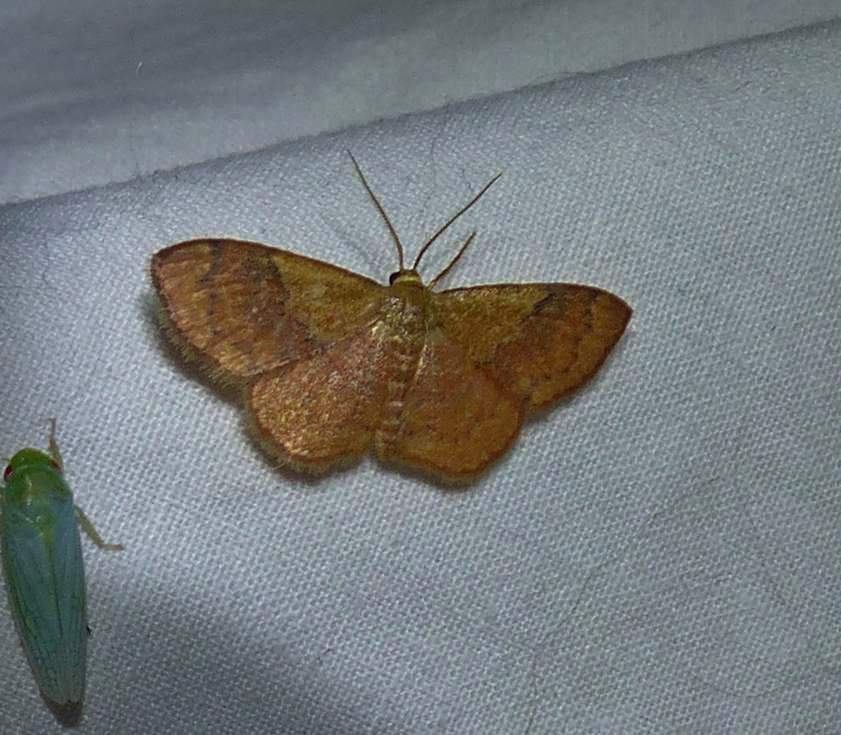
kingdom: Animalia
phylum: Arthropoda
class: Insecta
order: Lepidoptera
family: Geometridae
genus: Leptostales
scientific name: Leptostales ferruminaria
